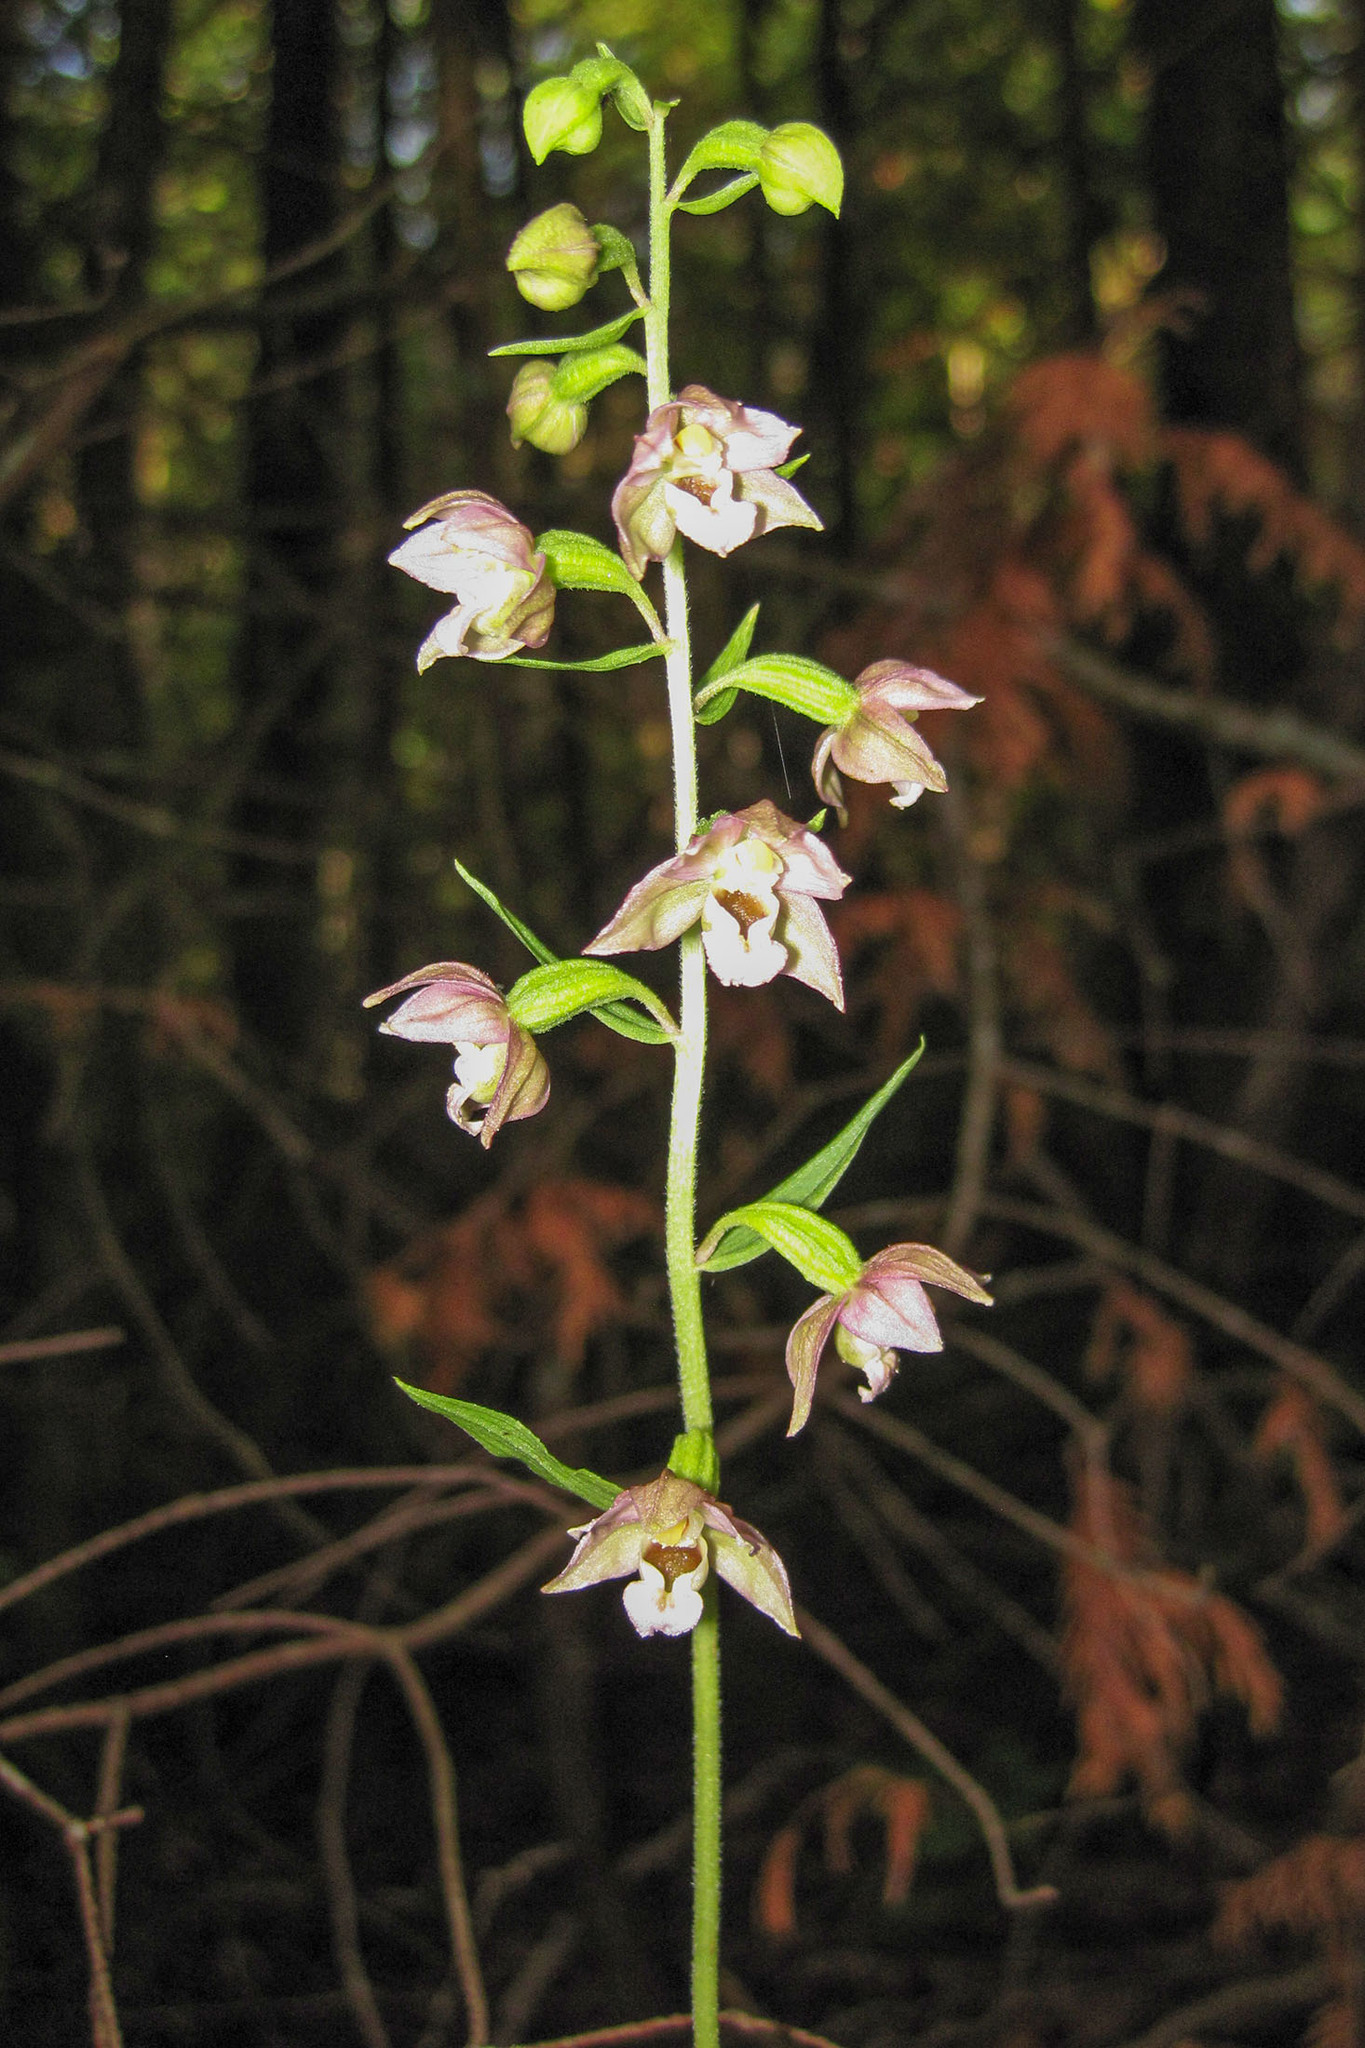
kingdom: Plantae
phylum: Tracheophyta
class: Liliopsida
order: Asparagales
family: Orchidaceae
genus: Epipactis
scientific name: Epipactis helleborine
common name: Broad-leaved helleborine
